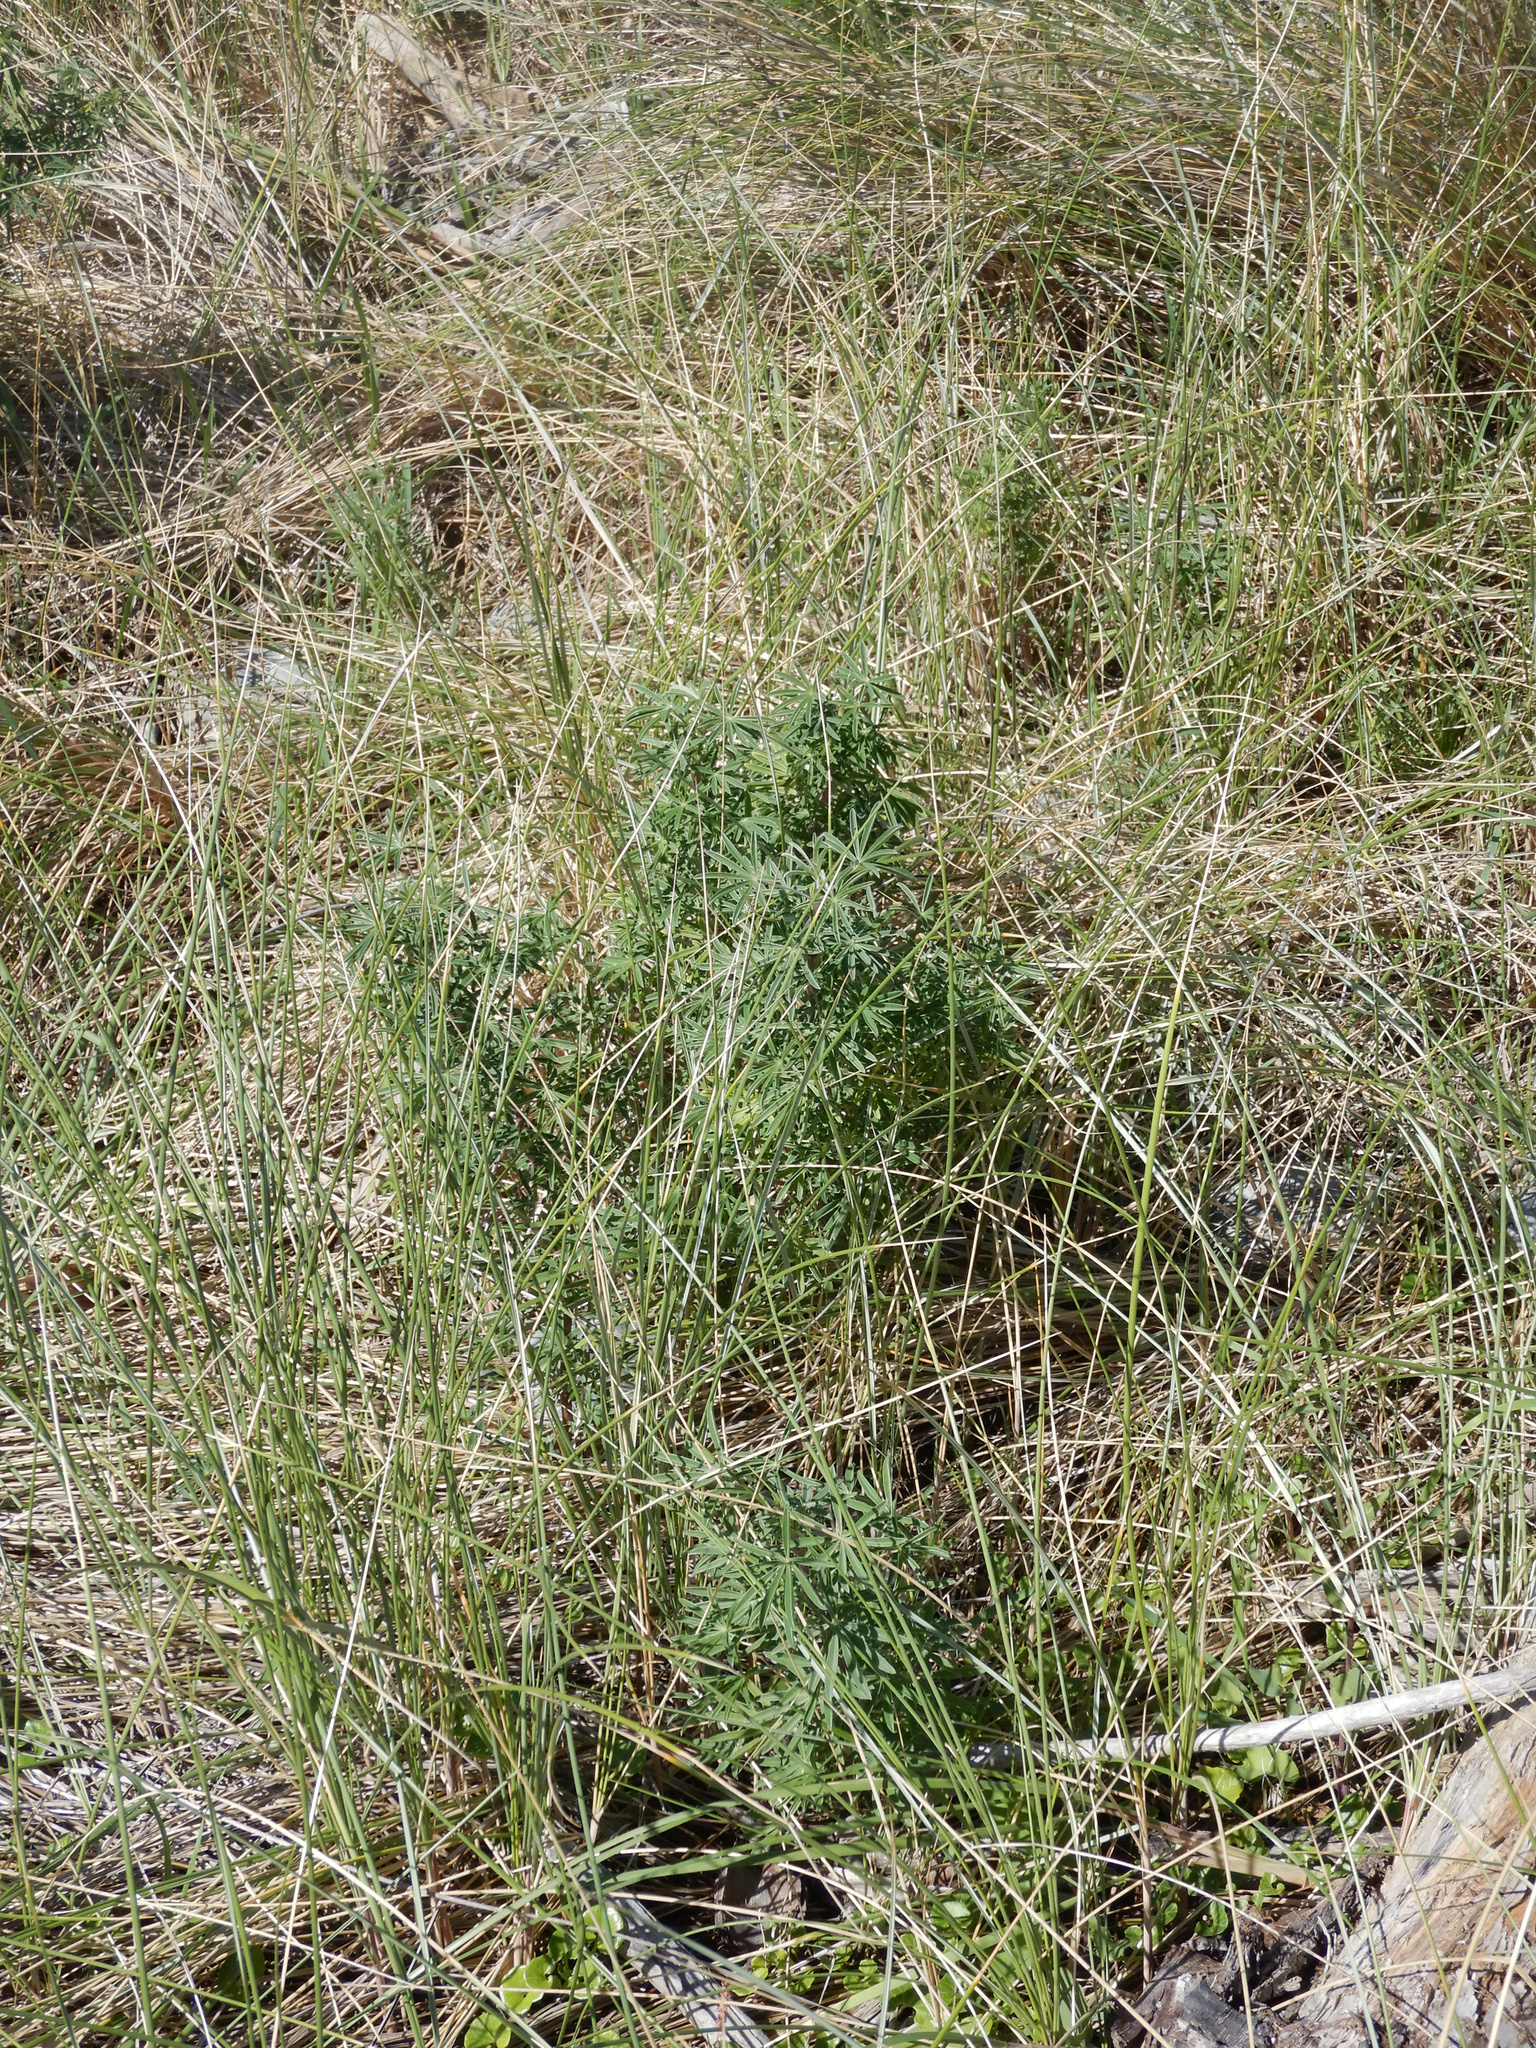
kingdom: Plantae
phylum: Tracheophyta
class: Magnoliopsida
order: Fabales
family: Fabaceae
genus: Lupinus
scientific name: Lupinus arboreus
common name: Yellow bush lupine
